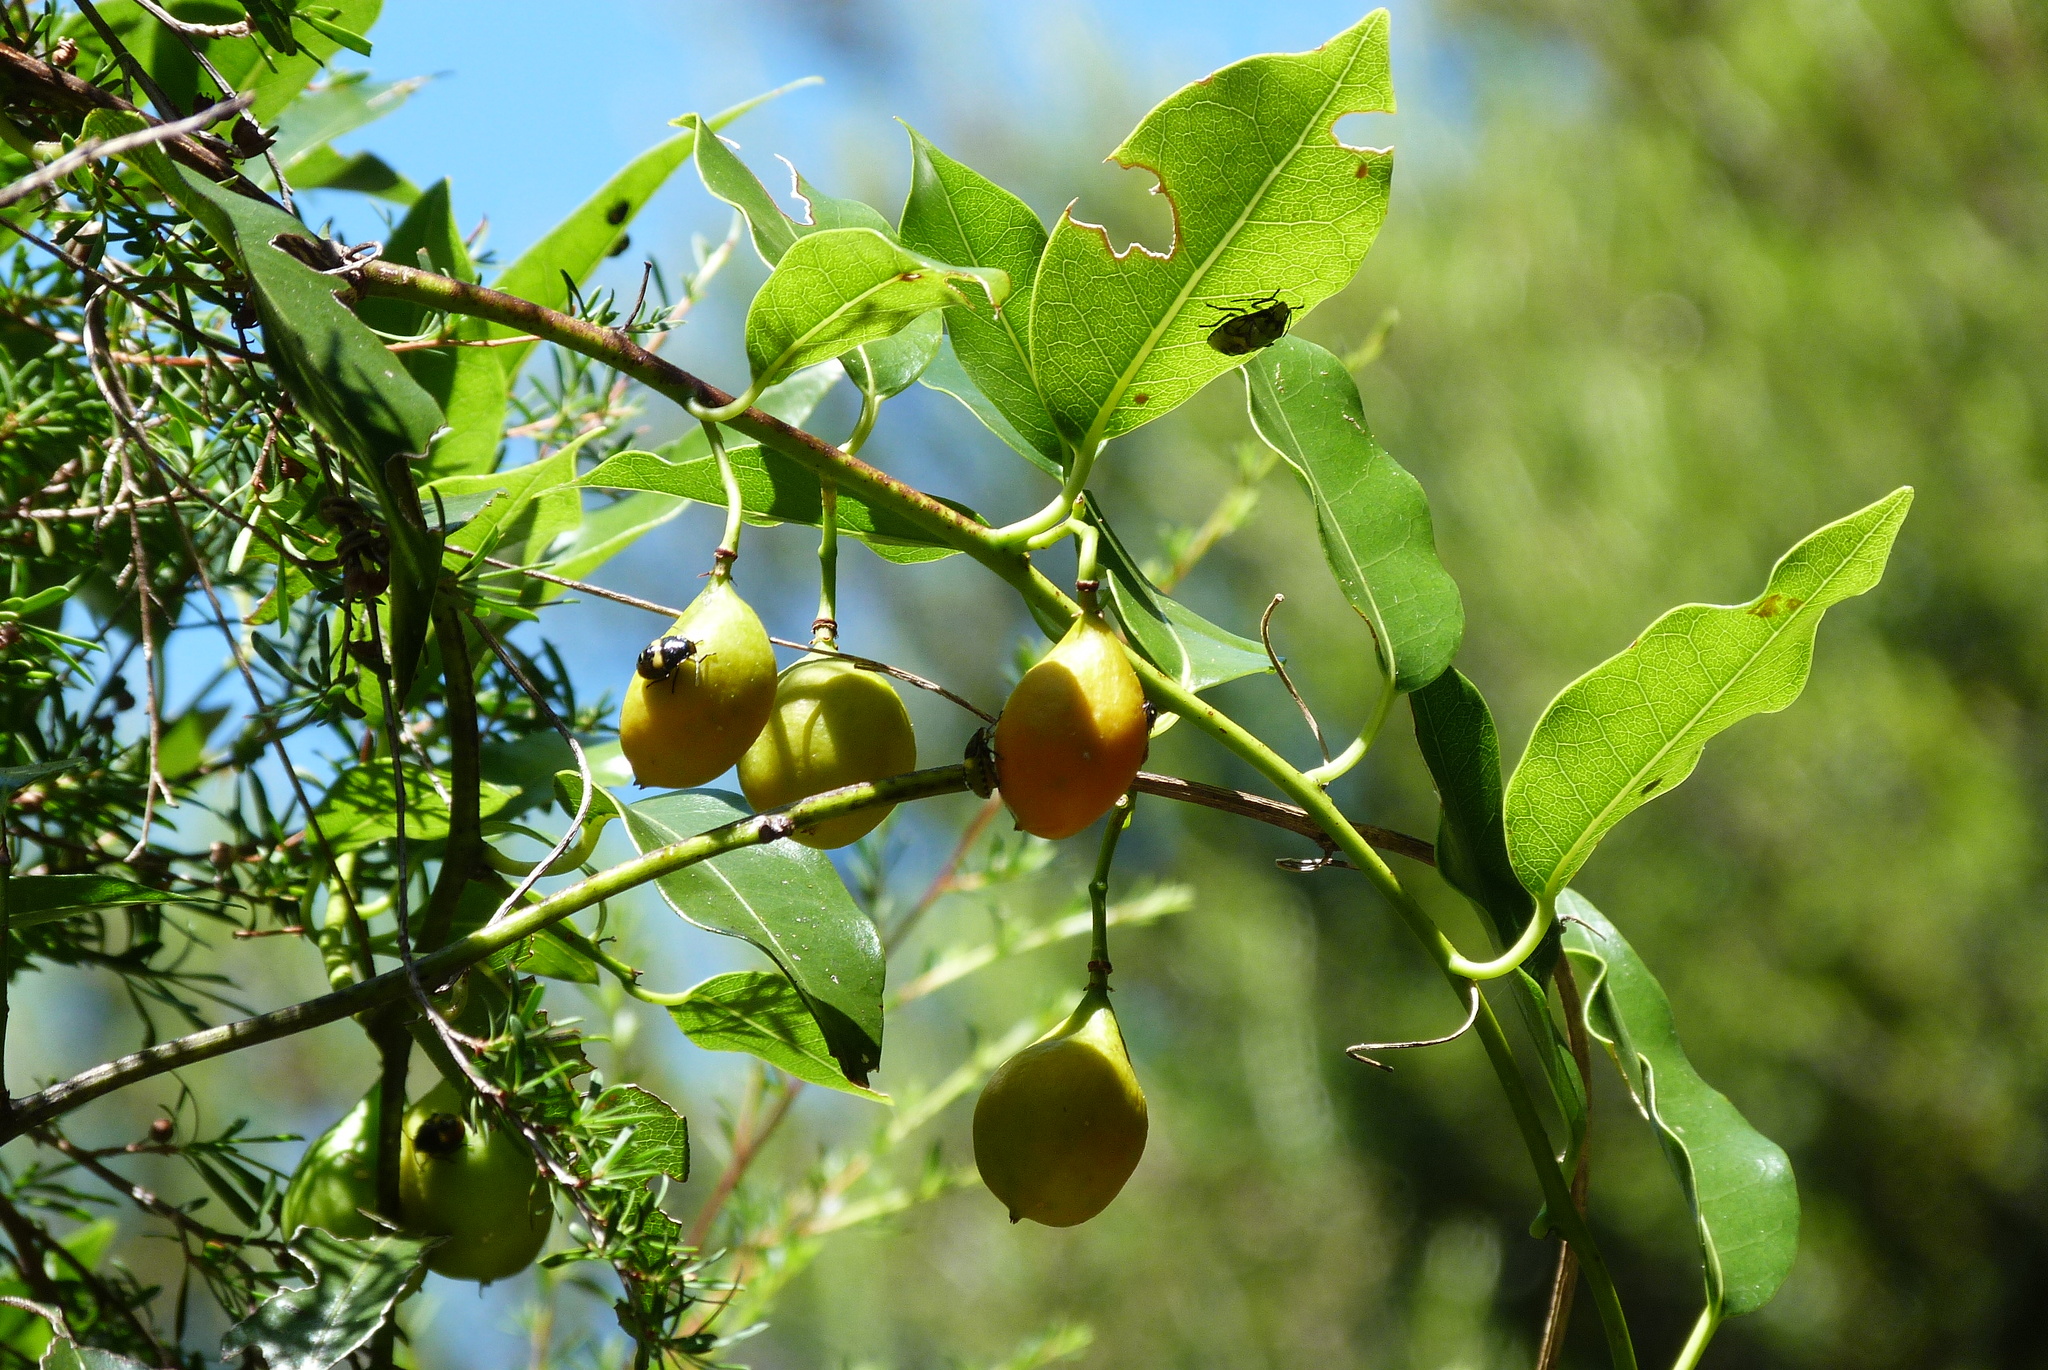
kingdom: Plantae
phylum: Tracheophyta
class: Magnoliopsida
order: Malpighiales
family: Passifloraceae
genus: Passiflora
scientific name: Passiflora tetrandra
